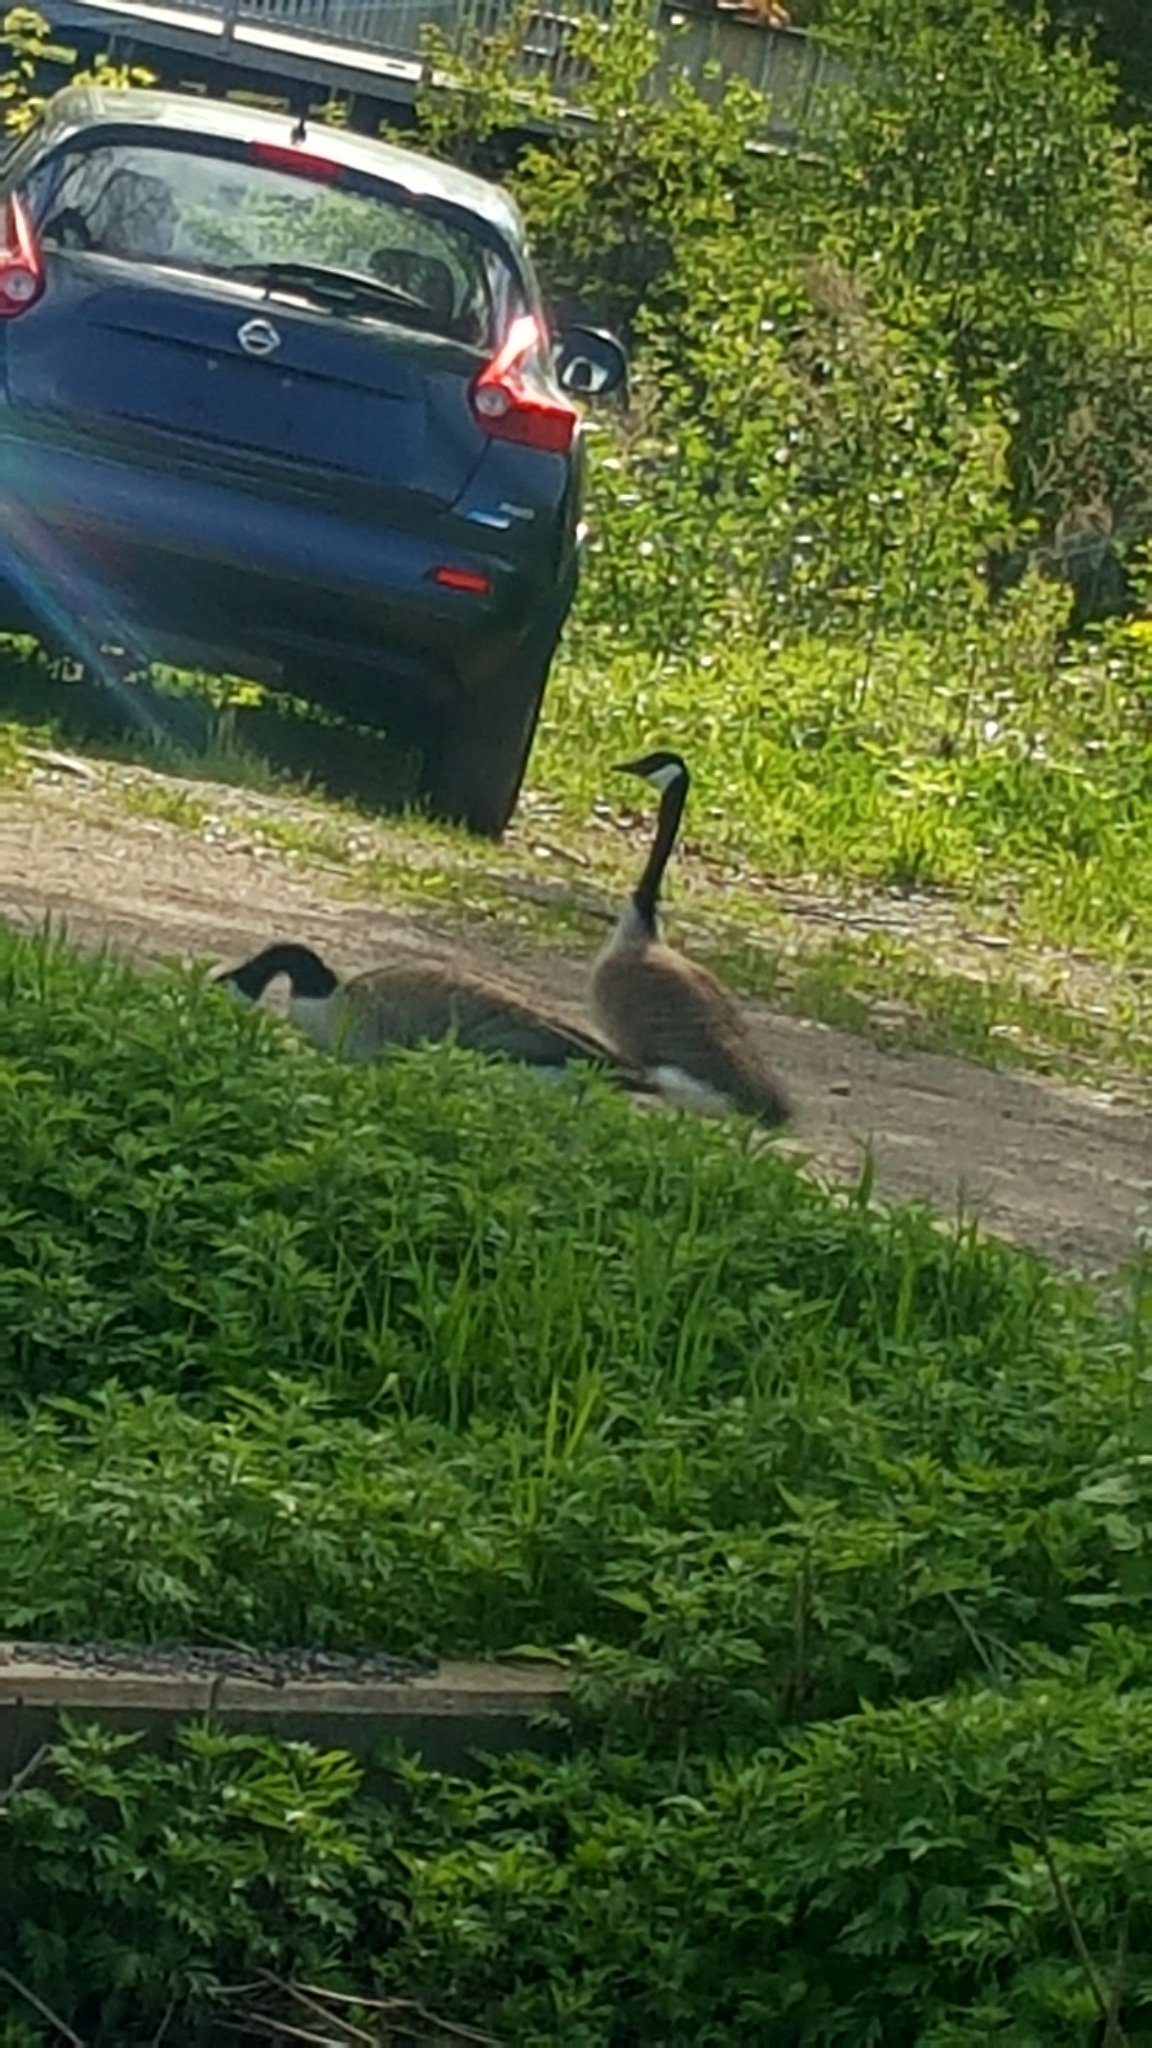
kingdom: Animalia
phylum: Chordata
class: Aves
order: Anseriformes
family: Anatidae
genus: Branta
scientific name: Branta canadensis
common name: Canada goose
